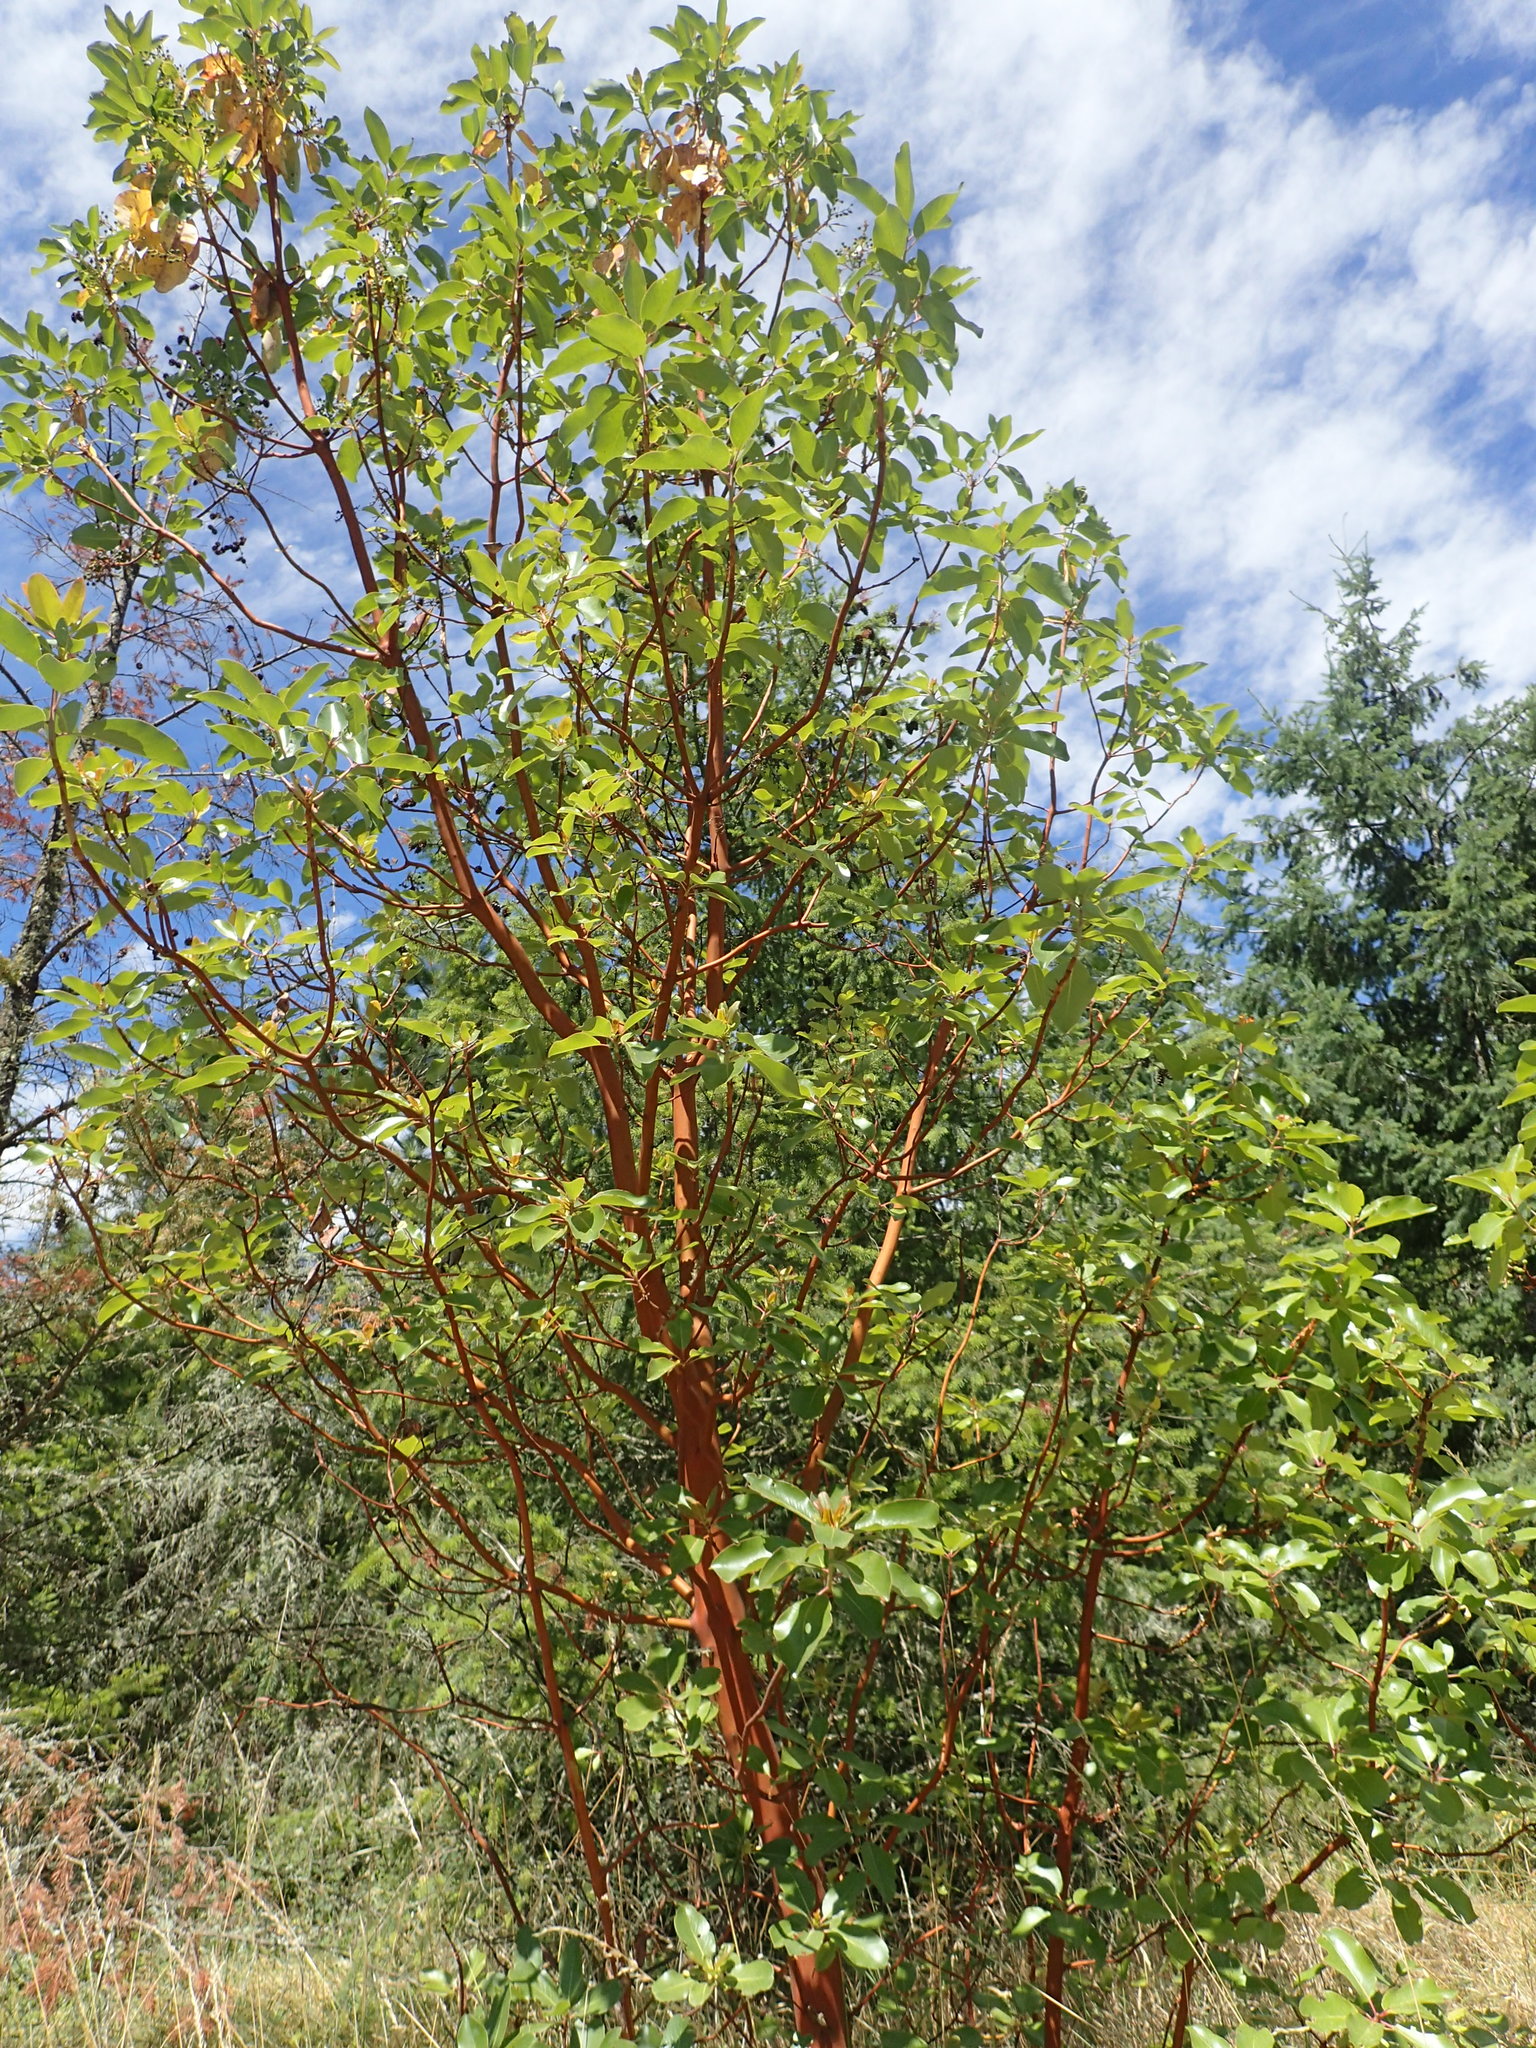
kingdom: Plantae
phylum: Tracheophyta
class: Magnoliopsida
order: Ericales
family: Ericaceae
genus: Arbutus
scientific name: Arbutus menziesii
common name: Pacific madrone
